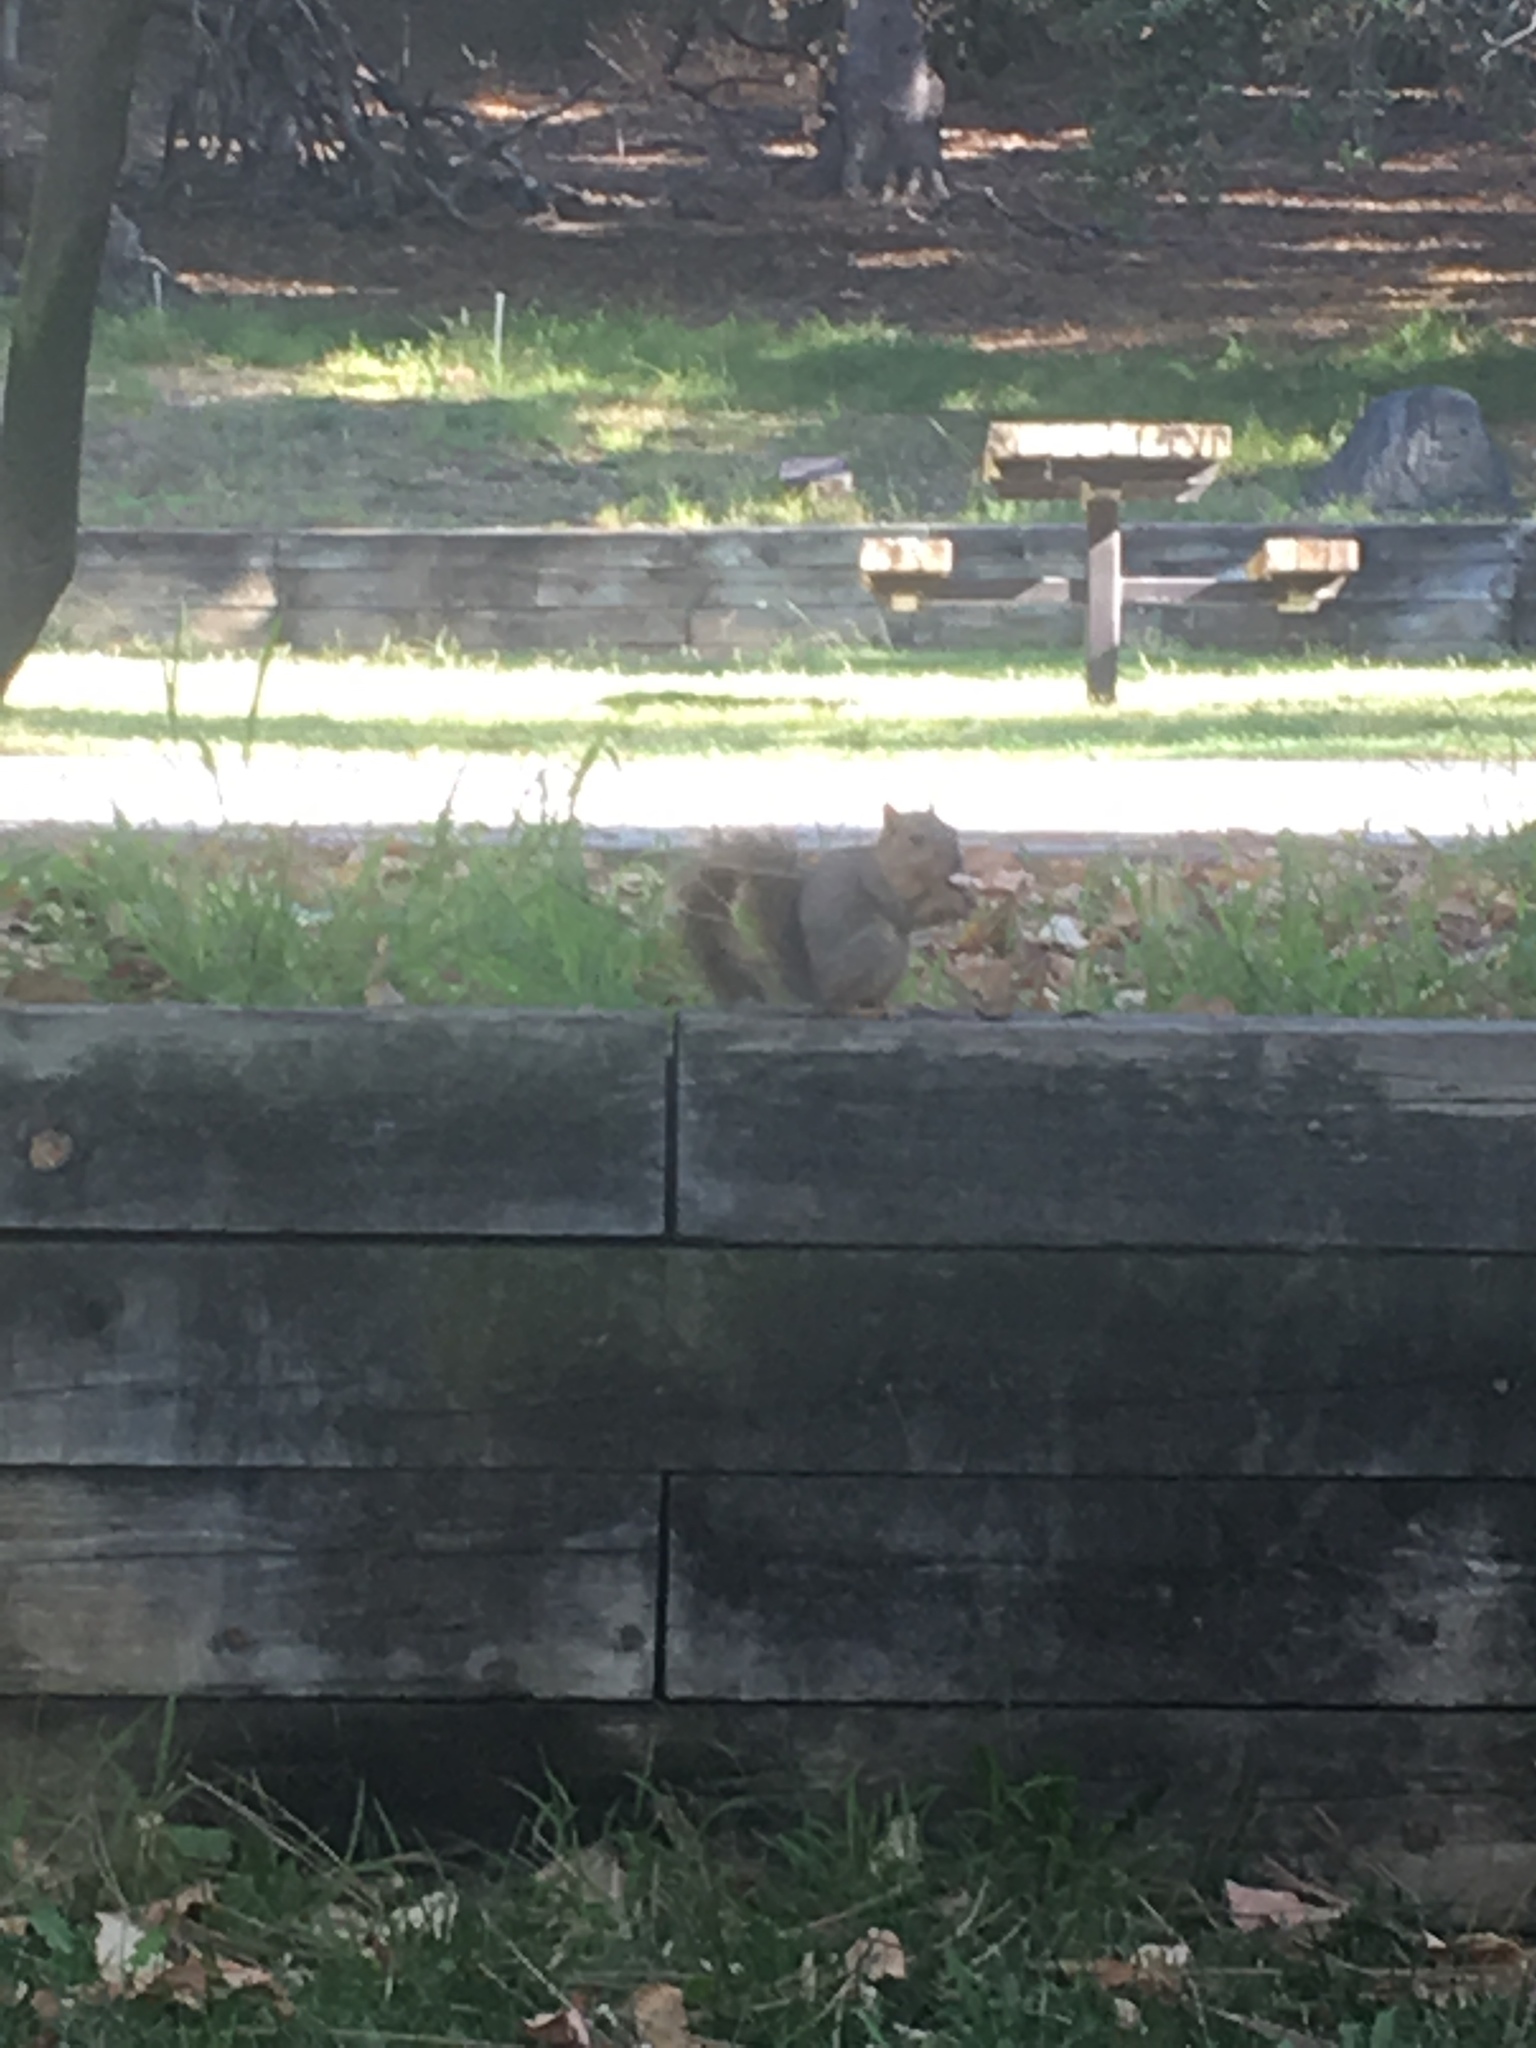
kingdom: Animalia
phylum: Chordata
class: Mammalia
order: Rodentia
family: Sciuridae
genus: Sciurus
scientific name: Sciurus niger
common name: Fox squirrel
